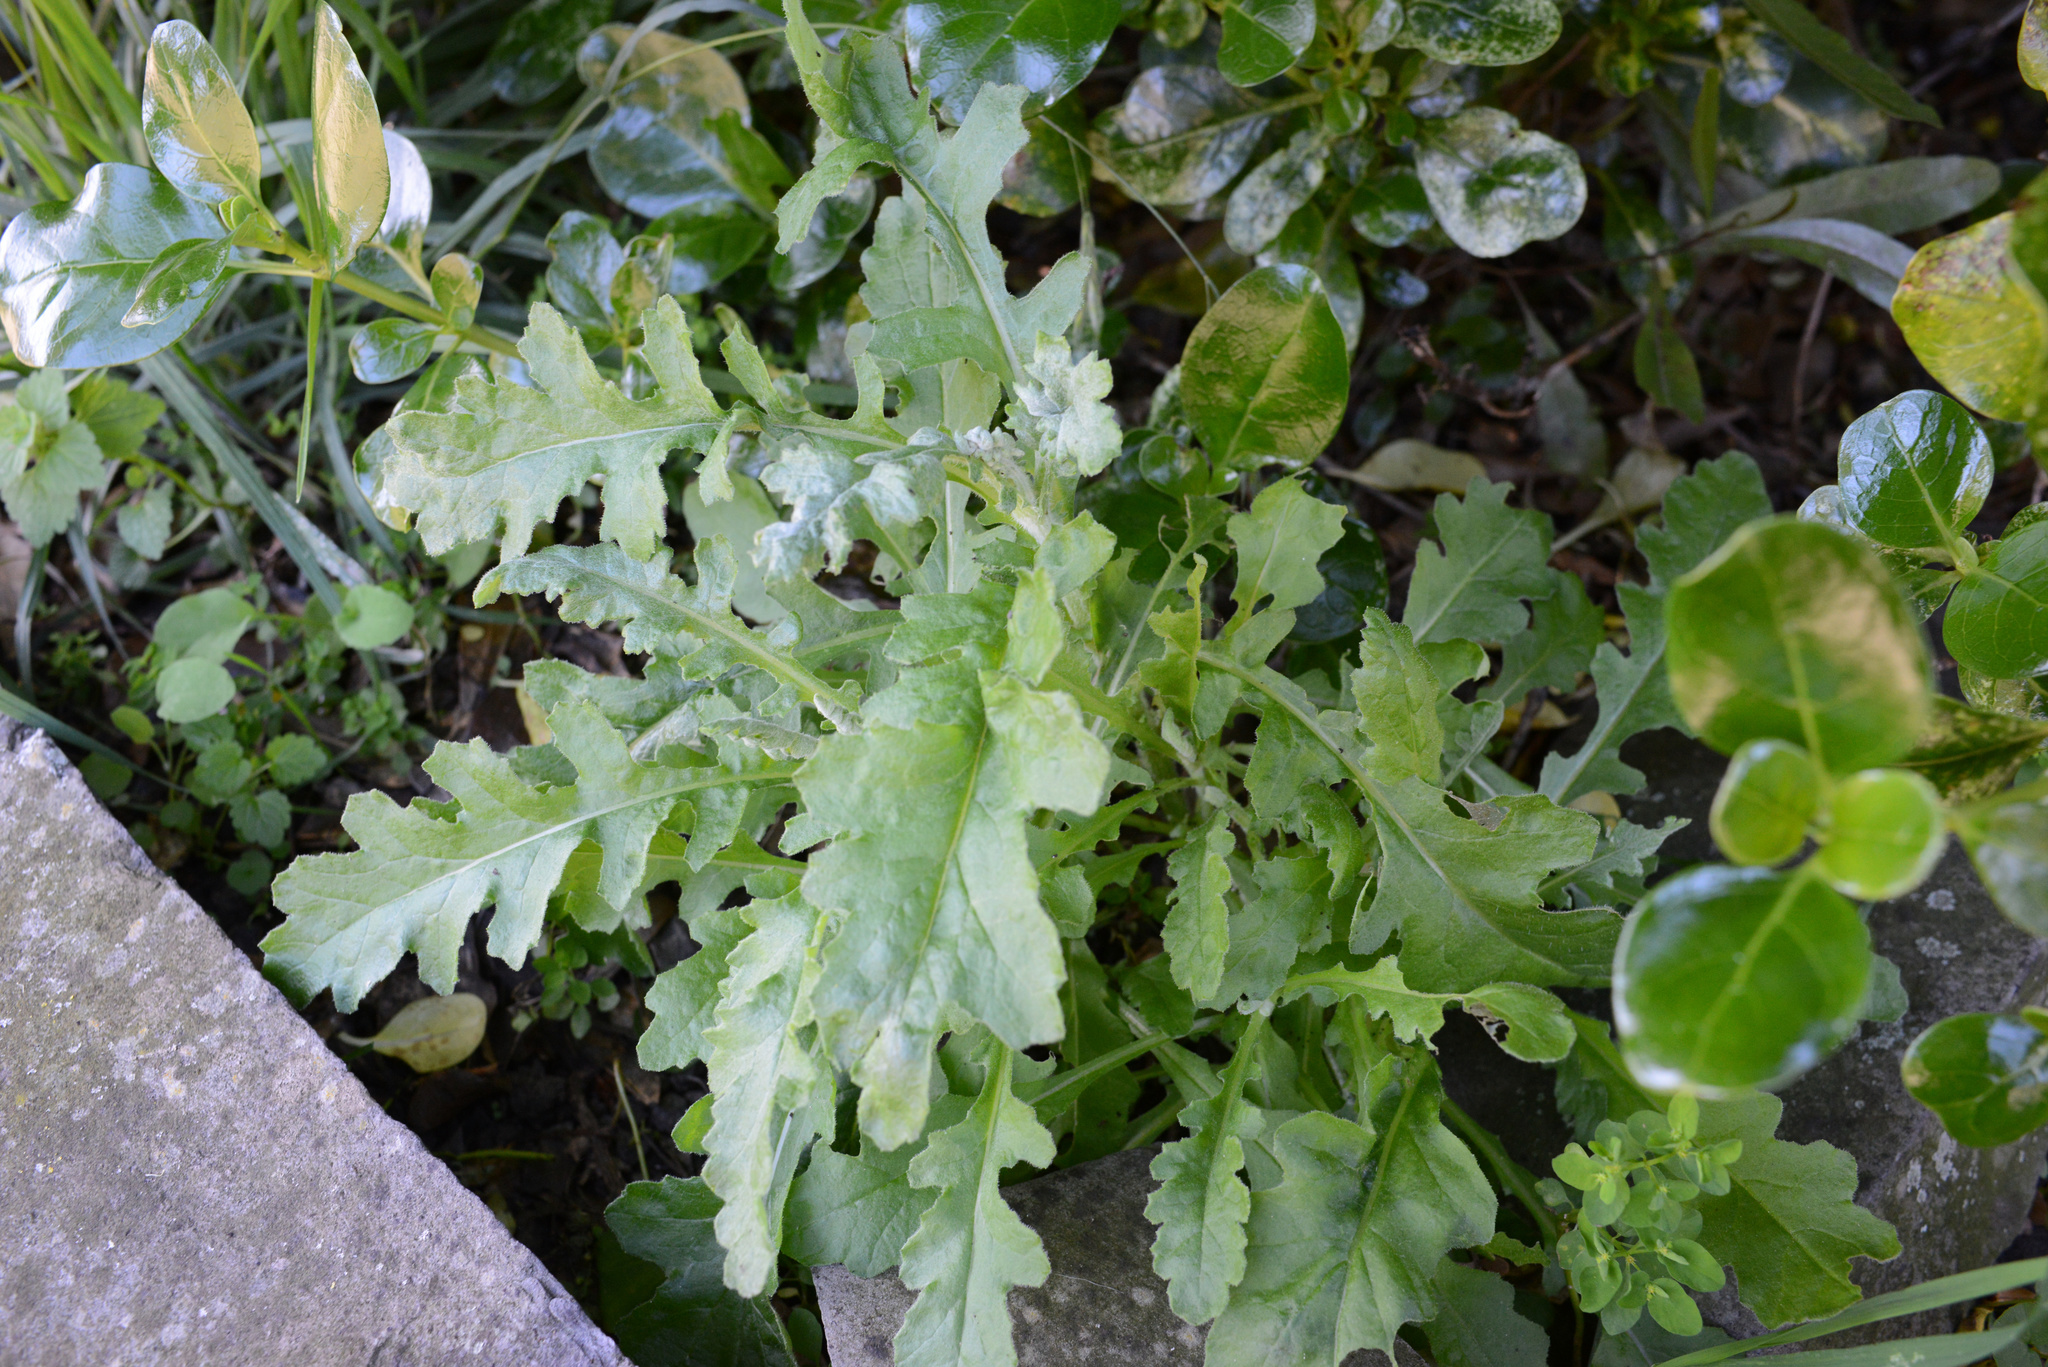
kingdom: Plantae
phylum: Tracheophyta
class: Magnoliopsida
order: Asterales
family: Asteraceae
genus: Senecio
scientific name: Senecio glomeratus
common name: Cutleaf burnweed
